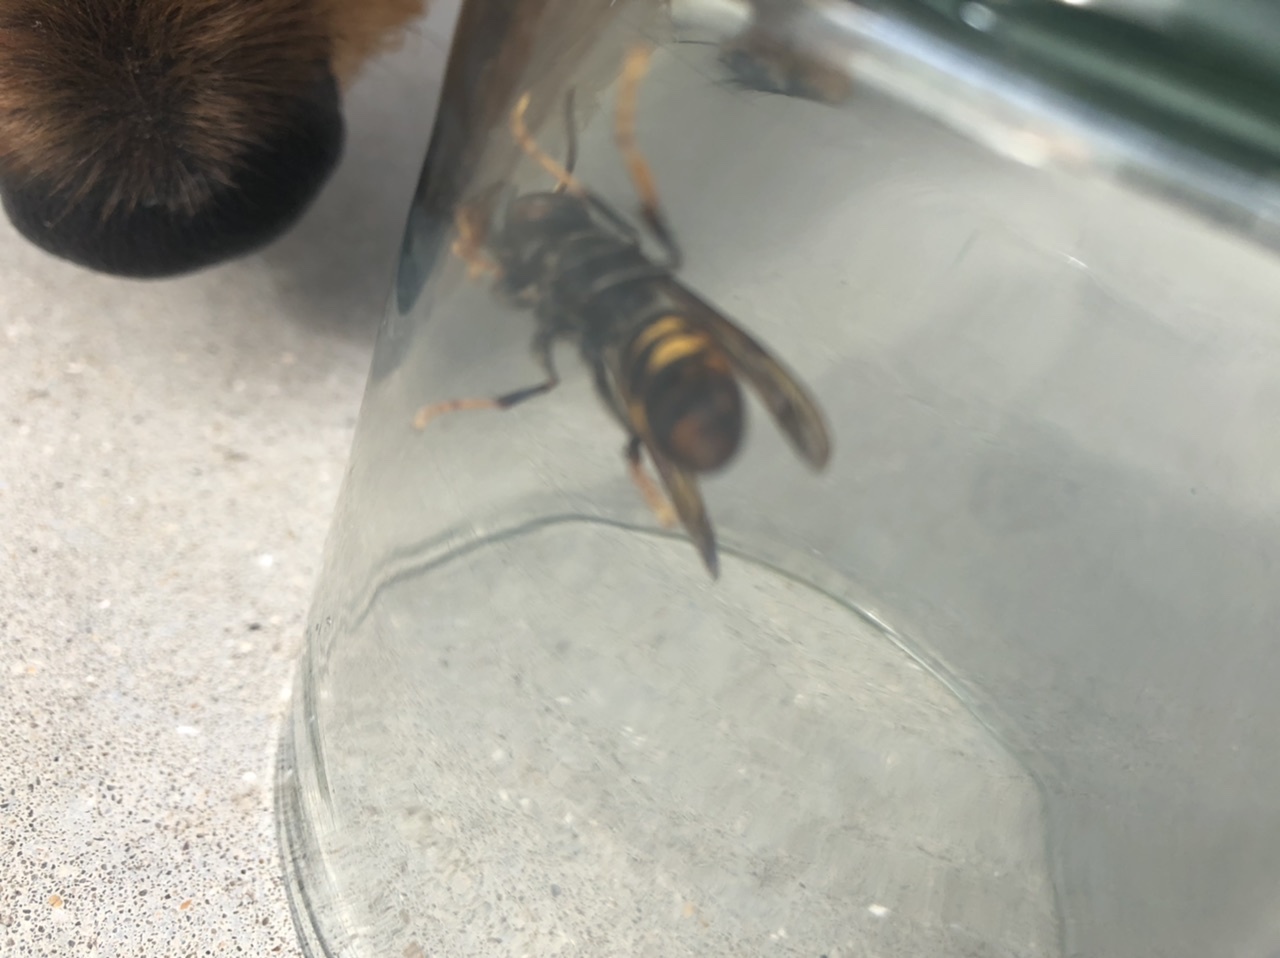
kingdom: Animalia
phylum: Arthropoda
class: Insecta
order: Hymenoptera
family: Vespidae
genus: Vespa
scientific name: Vespa velutina
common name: Asian hornet
